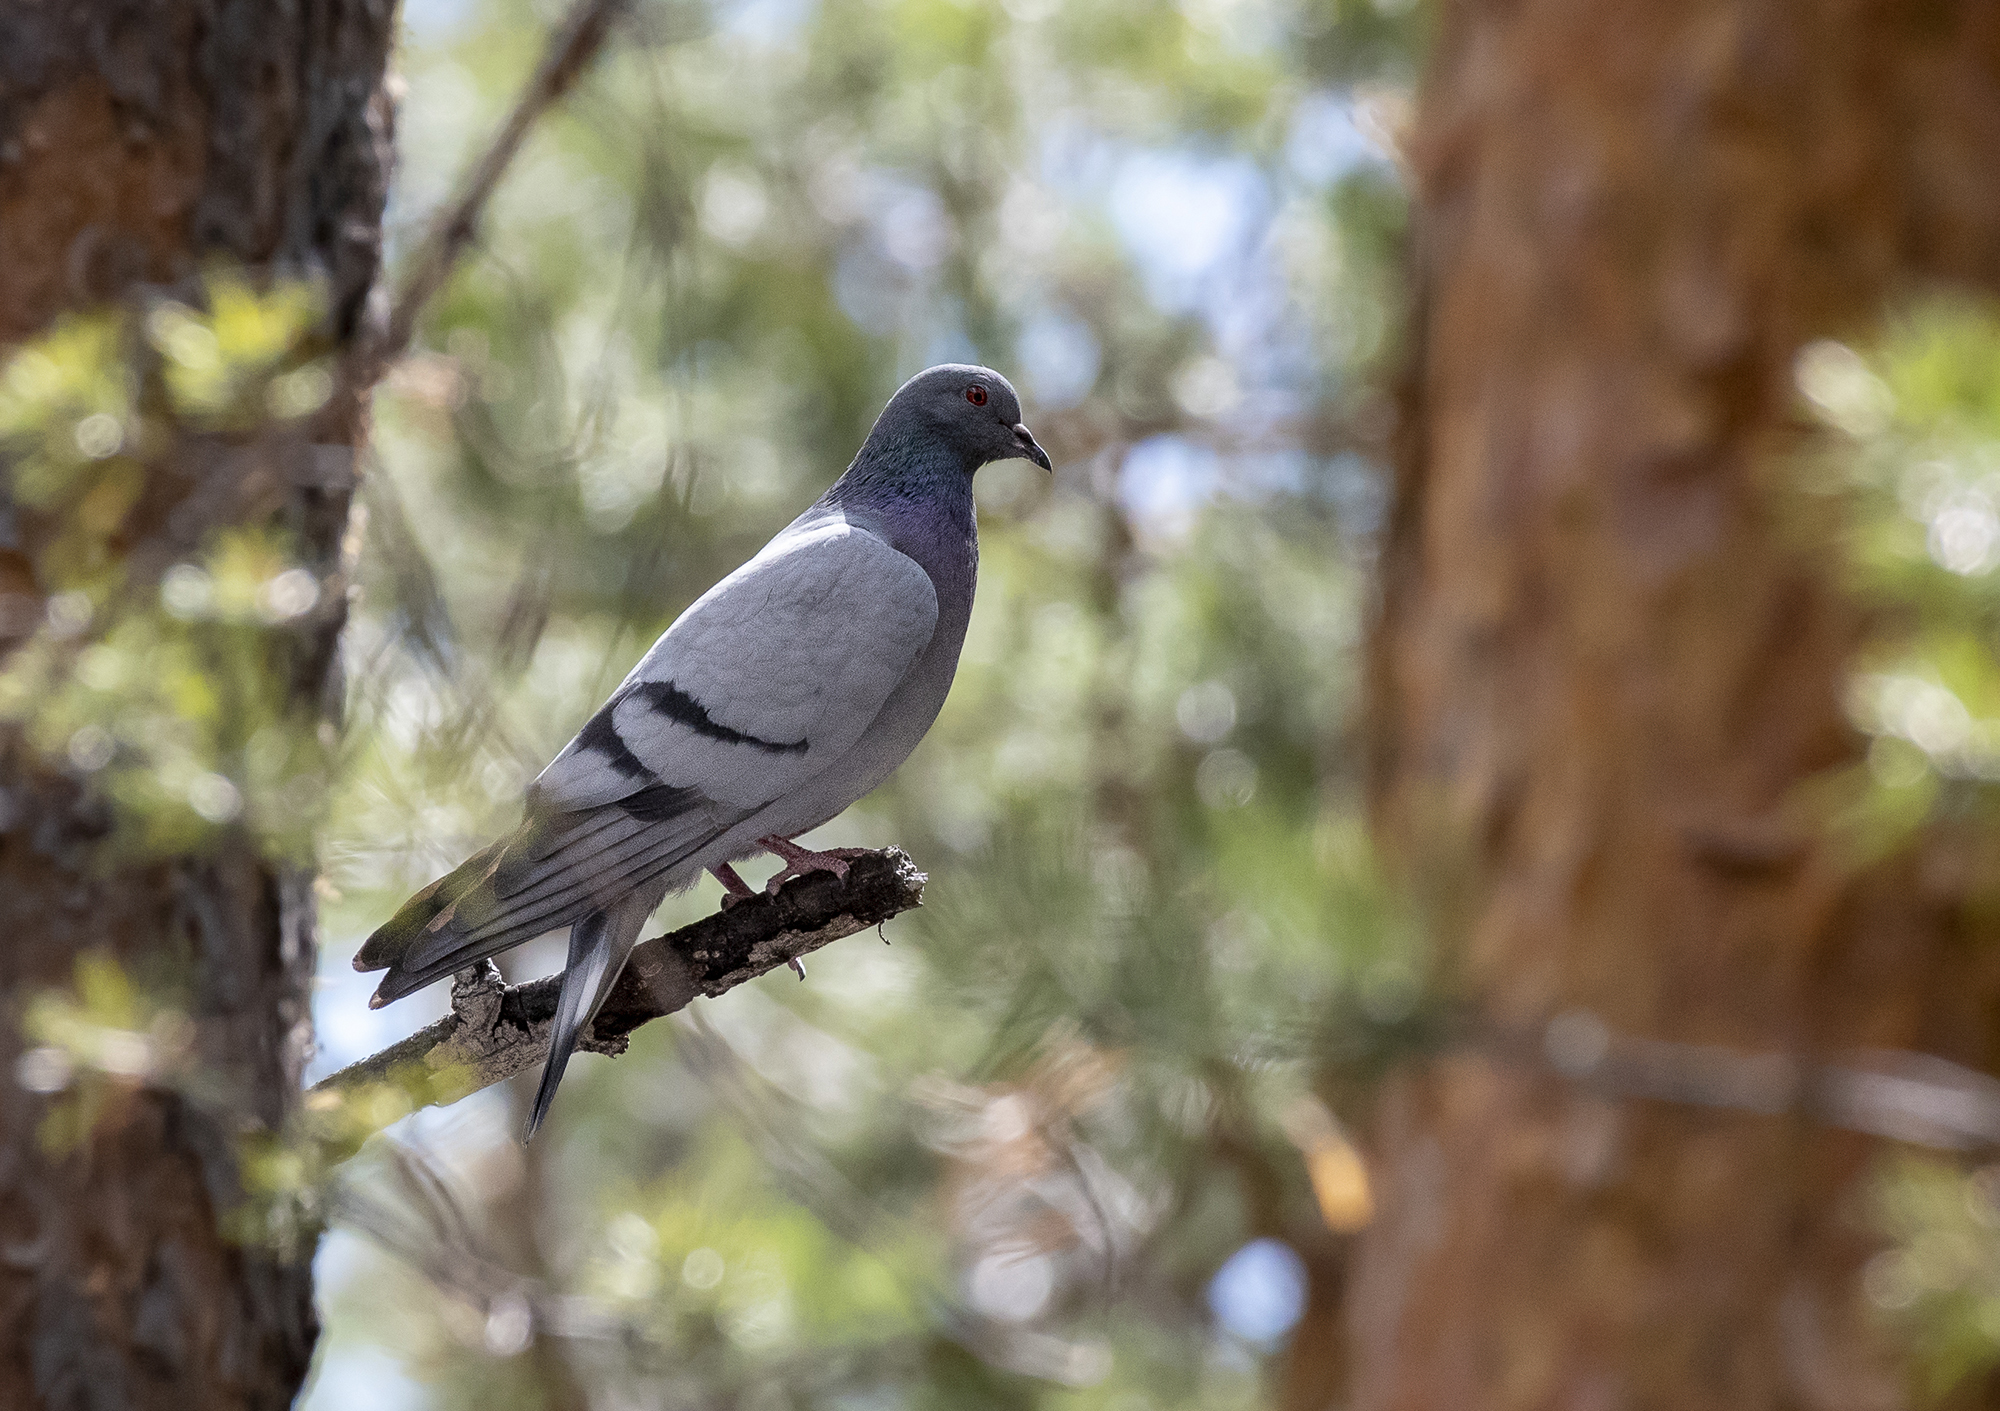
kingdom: Animalia
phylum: Chordata
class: Aves
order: Columbiformes
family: Columbidae
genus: Columba
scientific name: Columba rupestris
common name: Hill pigeon
